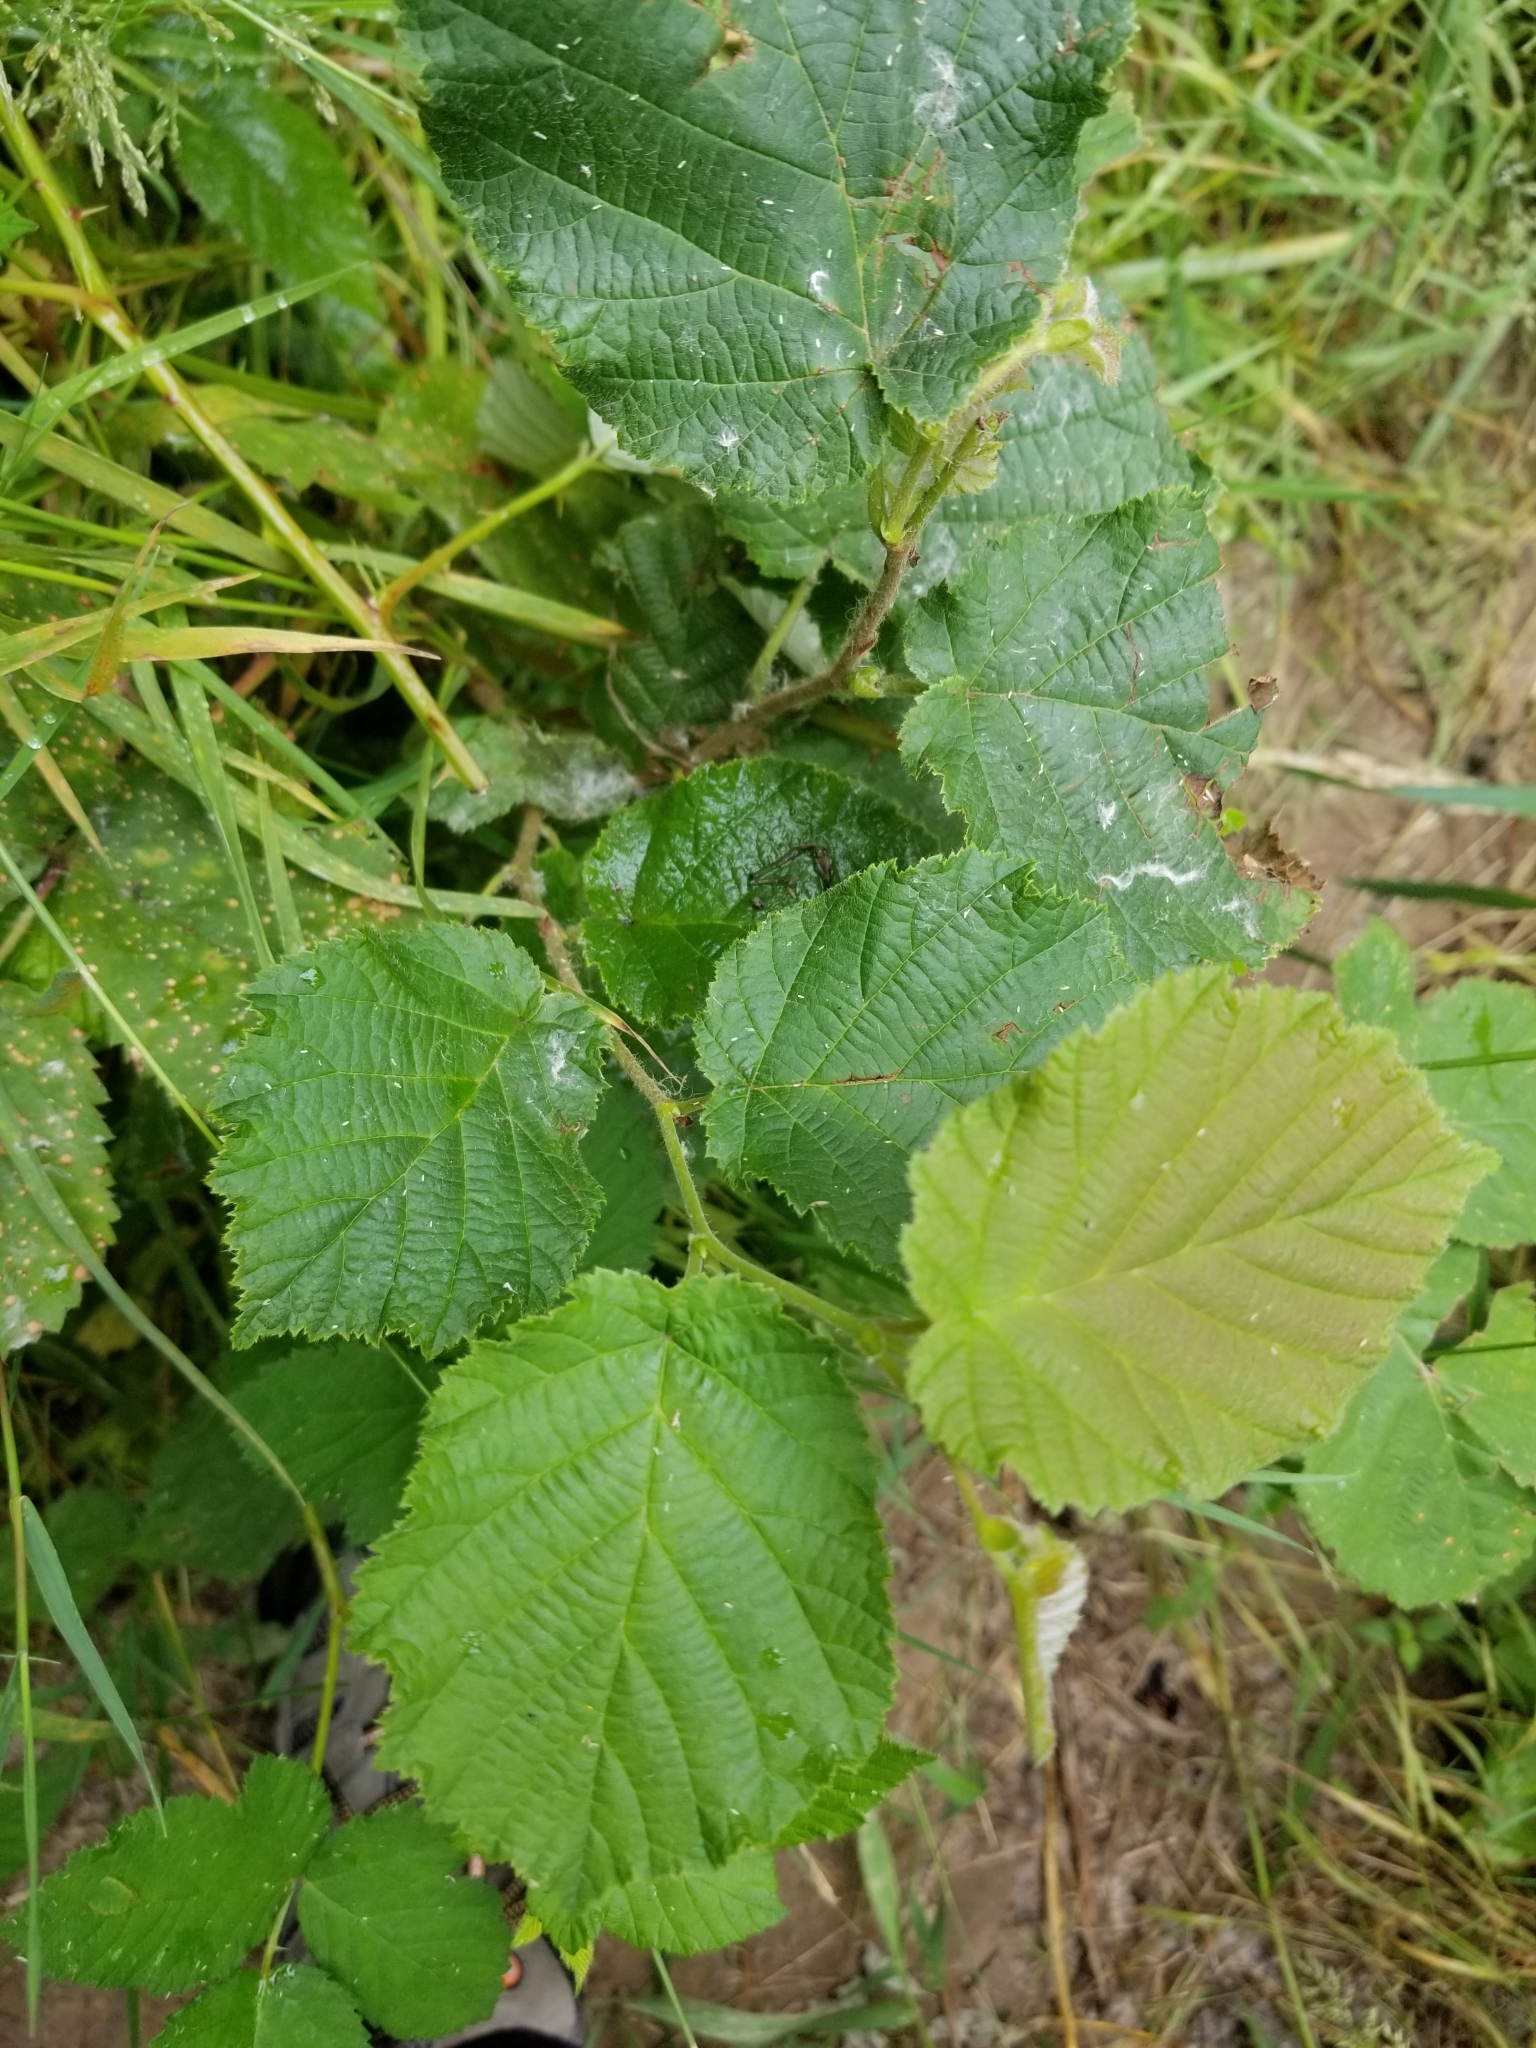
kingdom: Plantae
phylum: Tracheophyta
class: Magnoliopsida
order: Fagales
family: Betulaceae
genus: Corylus
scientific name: Corylus avellana
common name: European hazel
